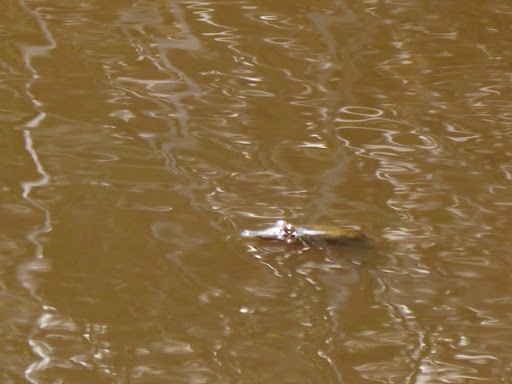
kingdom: Animalia
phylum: Chordata
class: Testudines
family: Trionychidae
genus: Pelodiscus
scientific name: Pelodiscus sinensis
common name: Chinese softshell turtle
